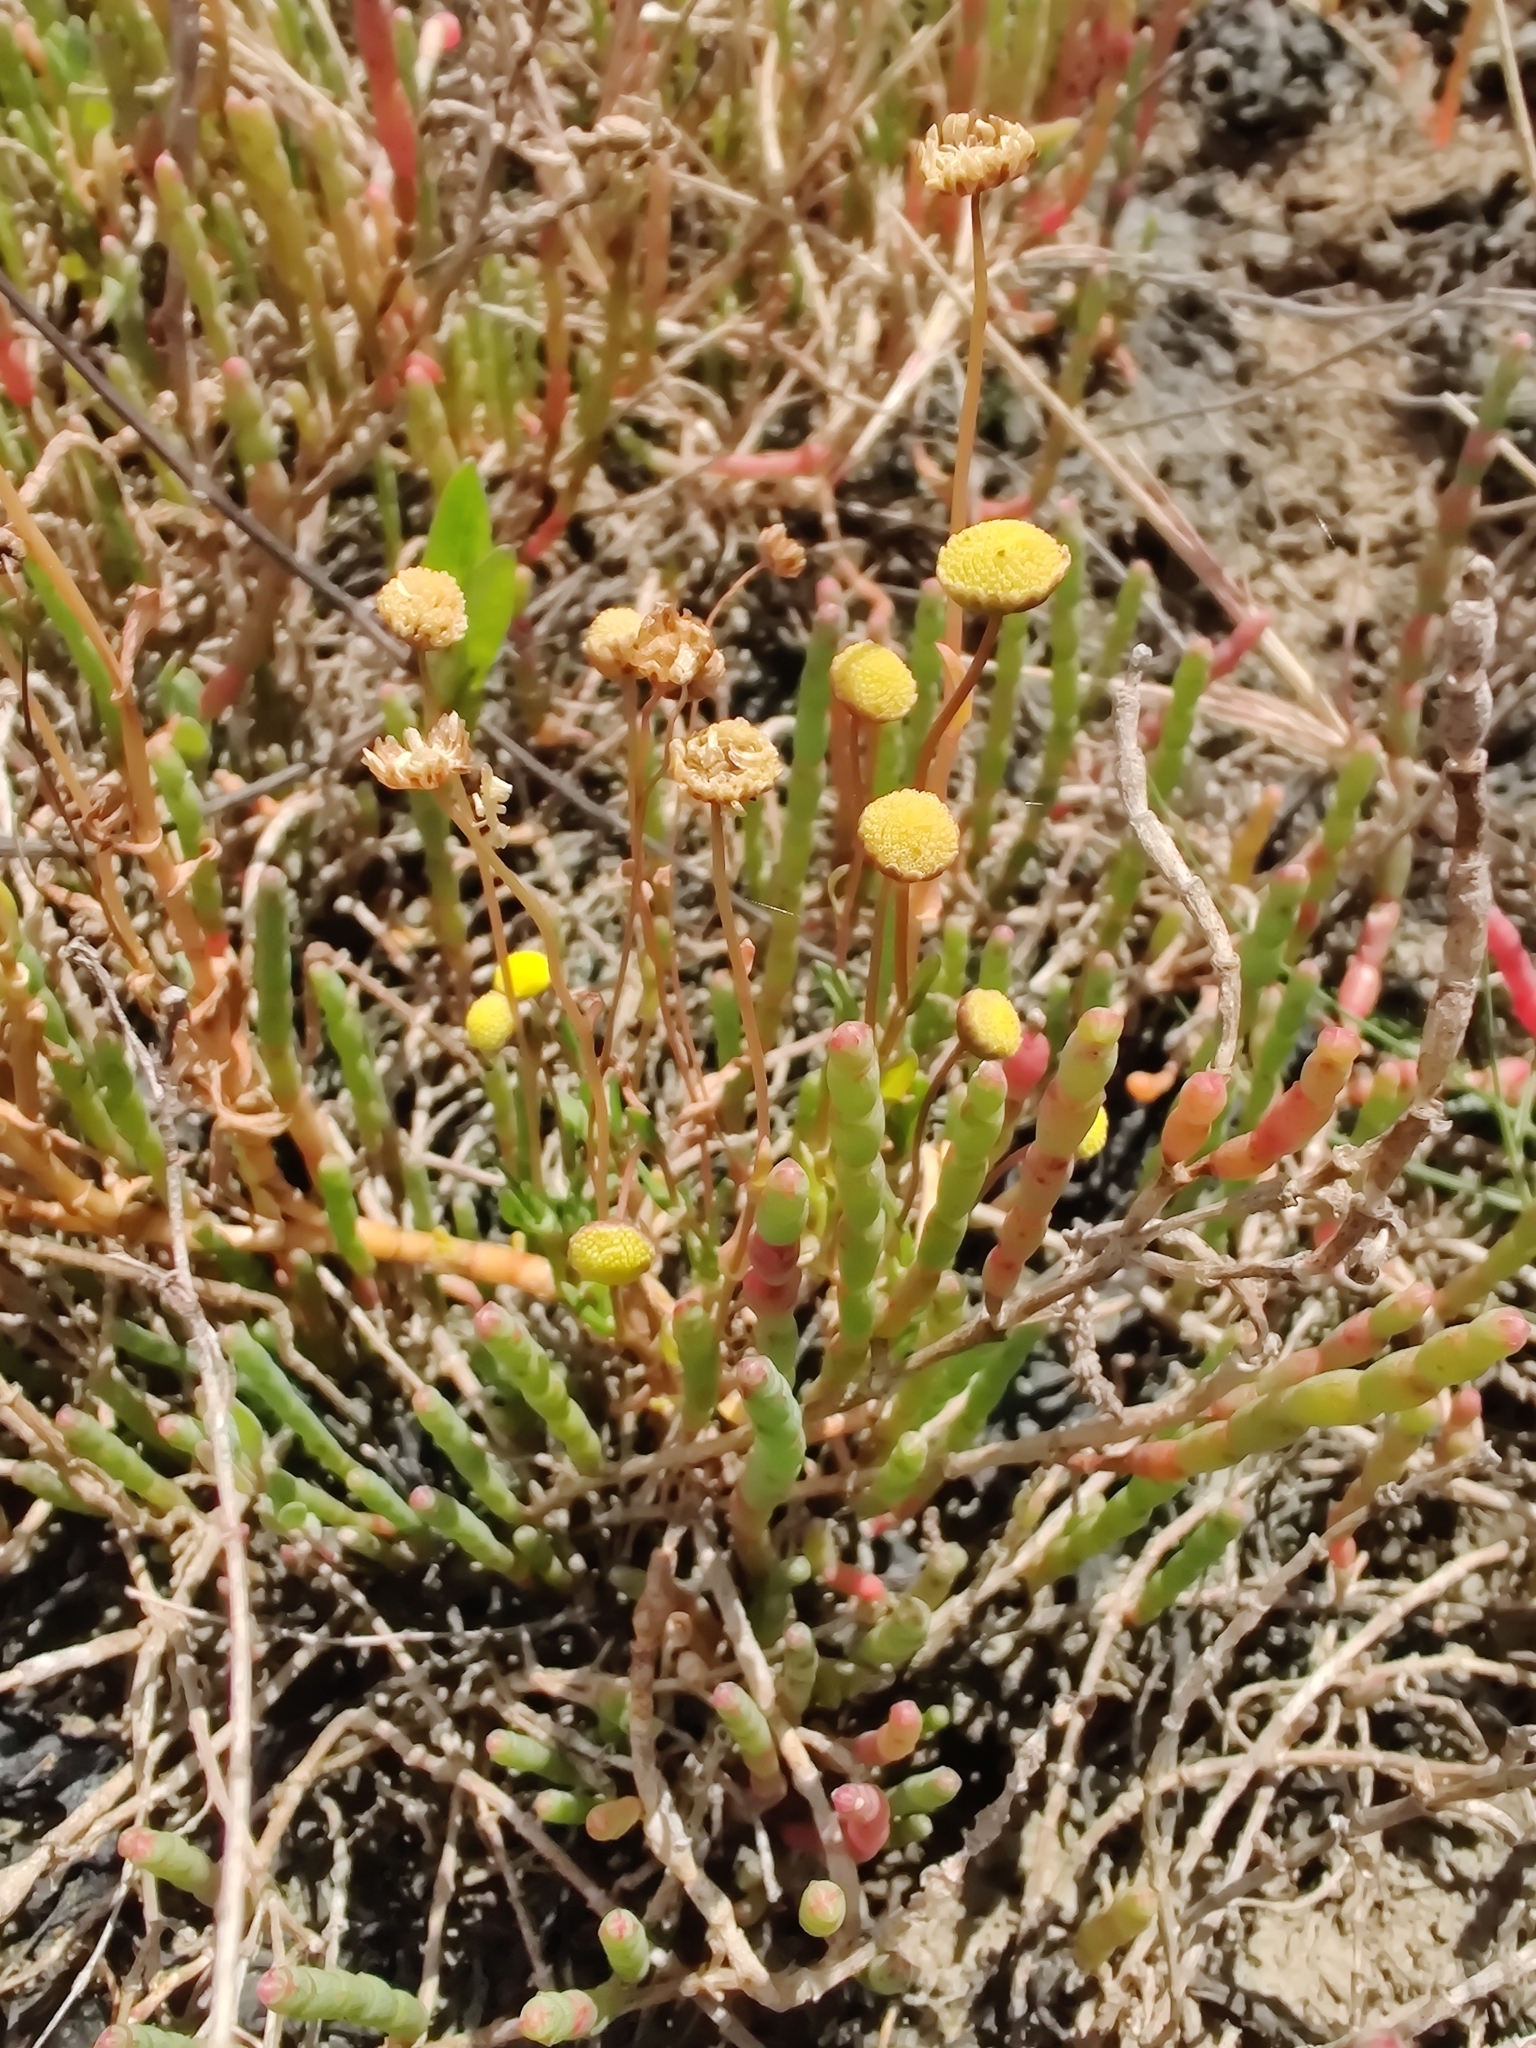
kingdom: Plantae
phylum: Tracheophyta
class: Magnoliopsida
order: Asterales
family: Asteraceae
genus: Cotula
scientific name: Cotula coronopifolia
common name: Buttonweed
